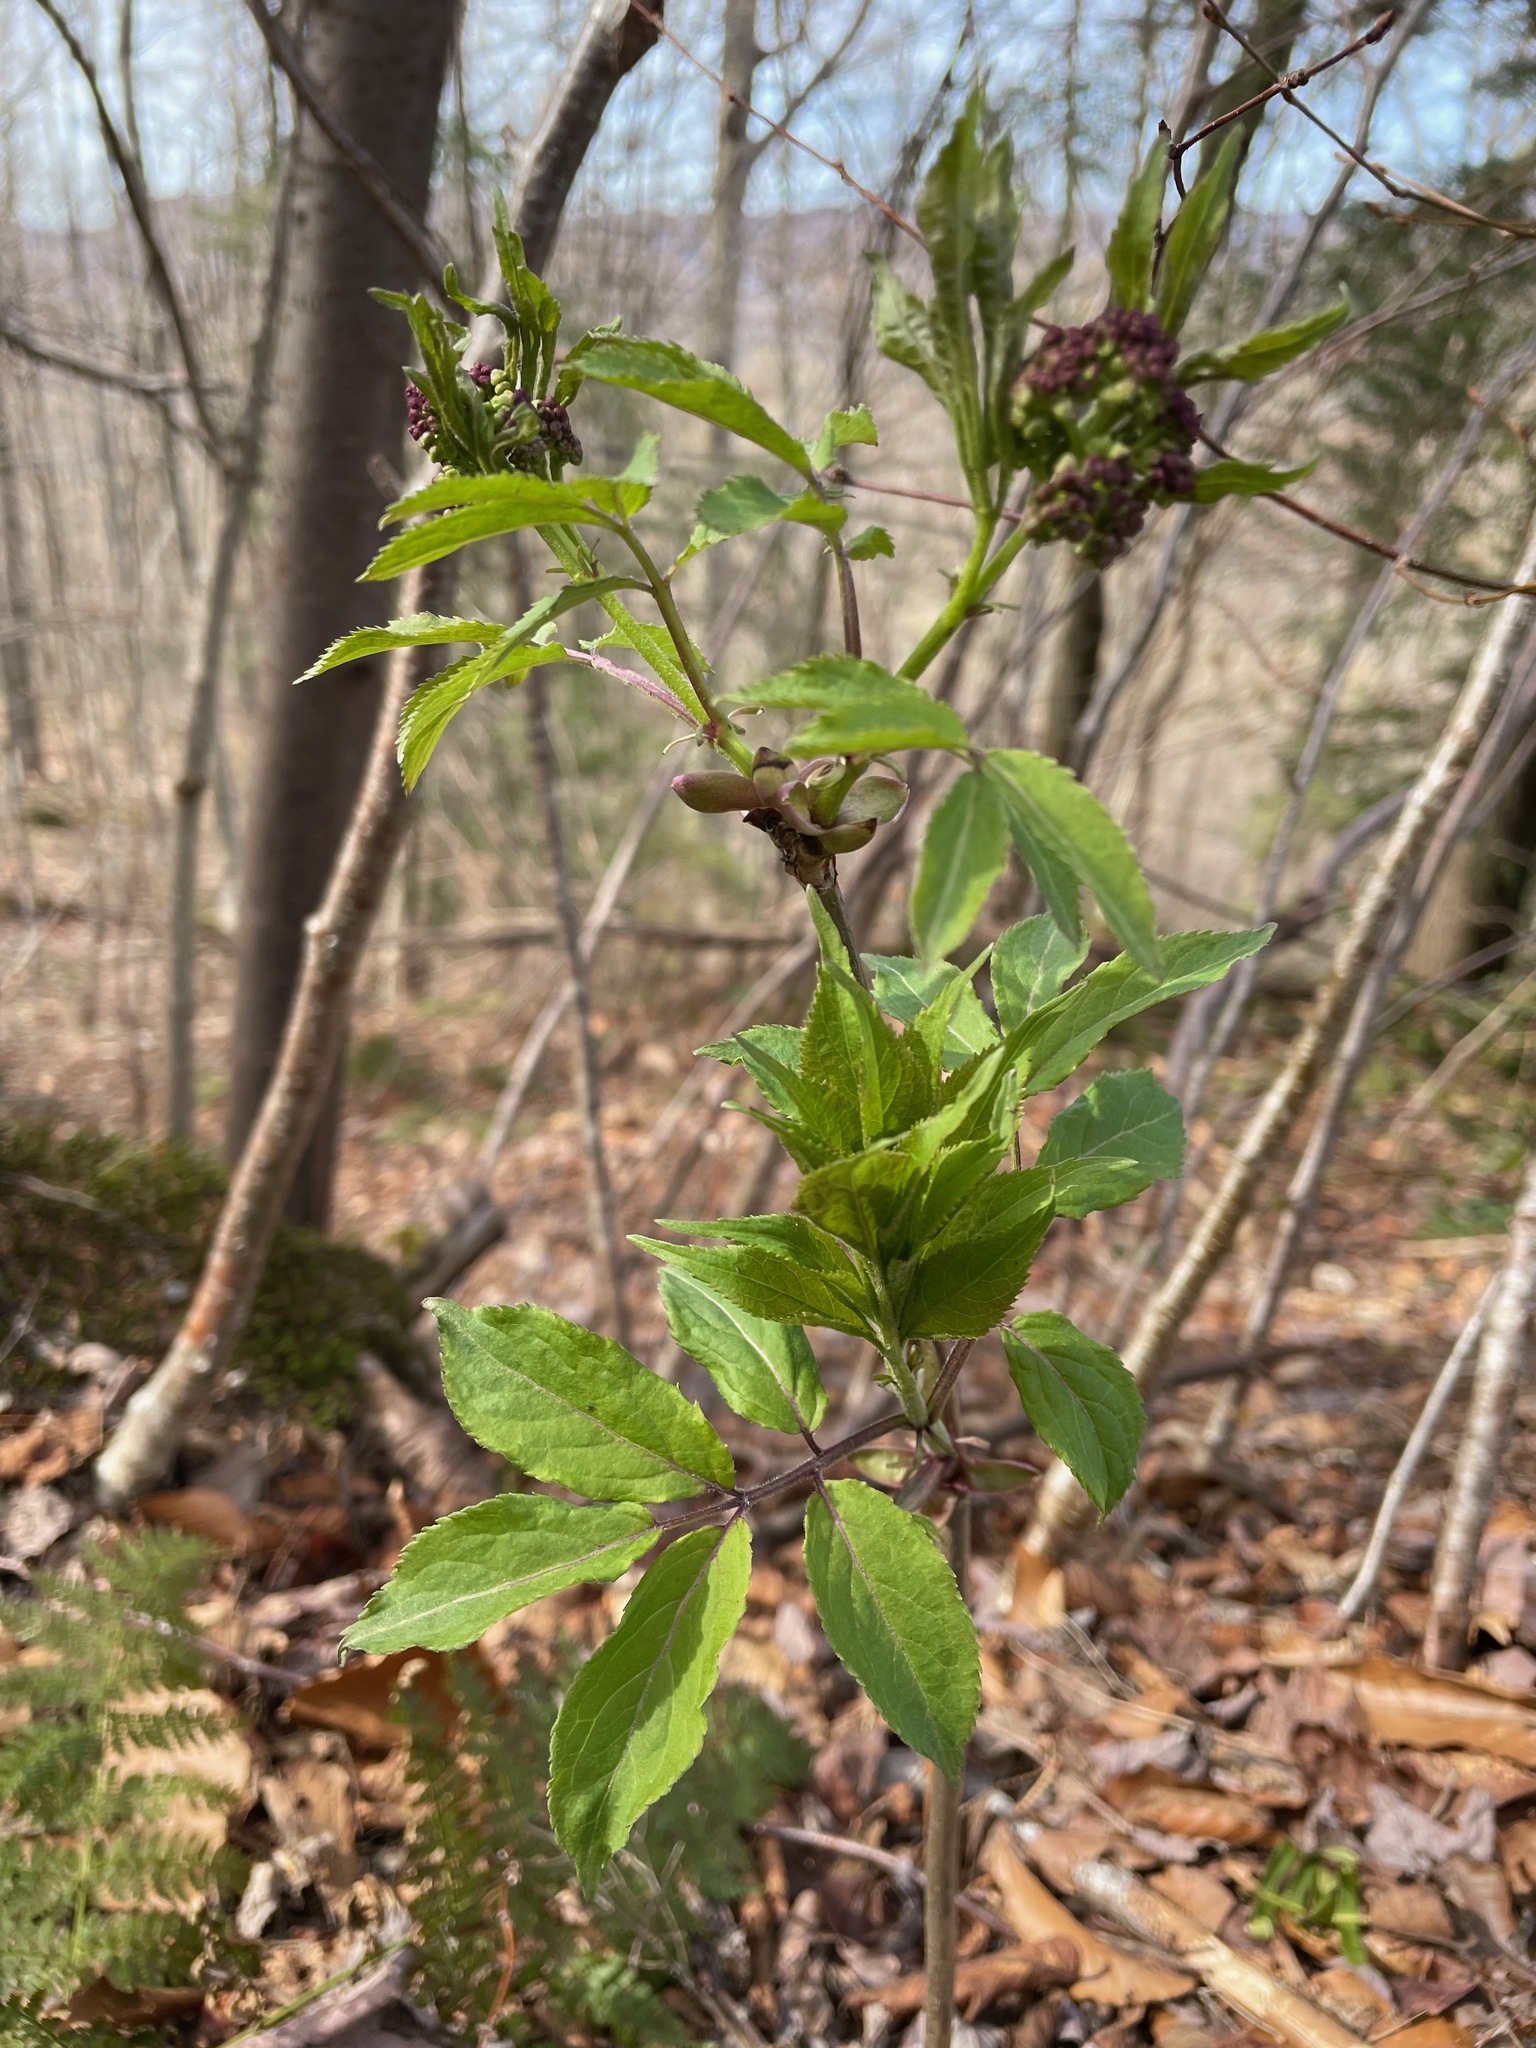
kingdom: Plantae
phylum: Tracheophyta
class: Magnoliopsida
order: Dipsacales
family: Viburnaceae
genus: Sambucus
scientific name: Sambucus racemosa
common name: Red-berried elder
